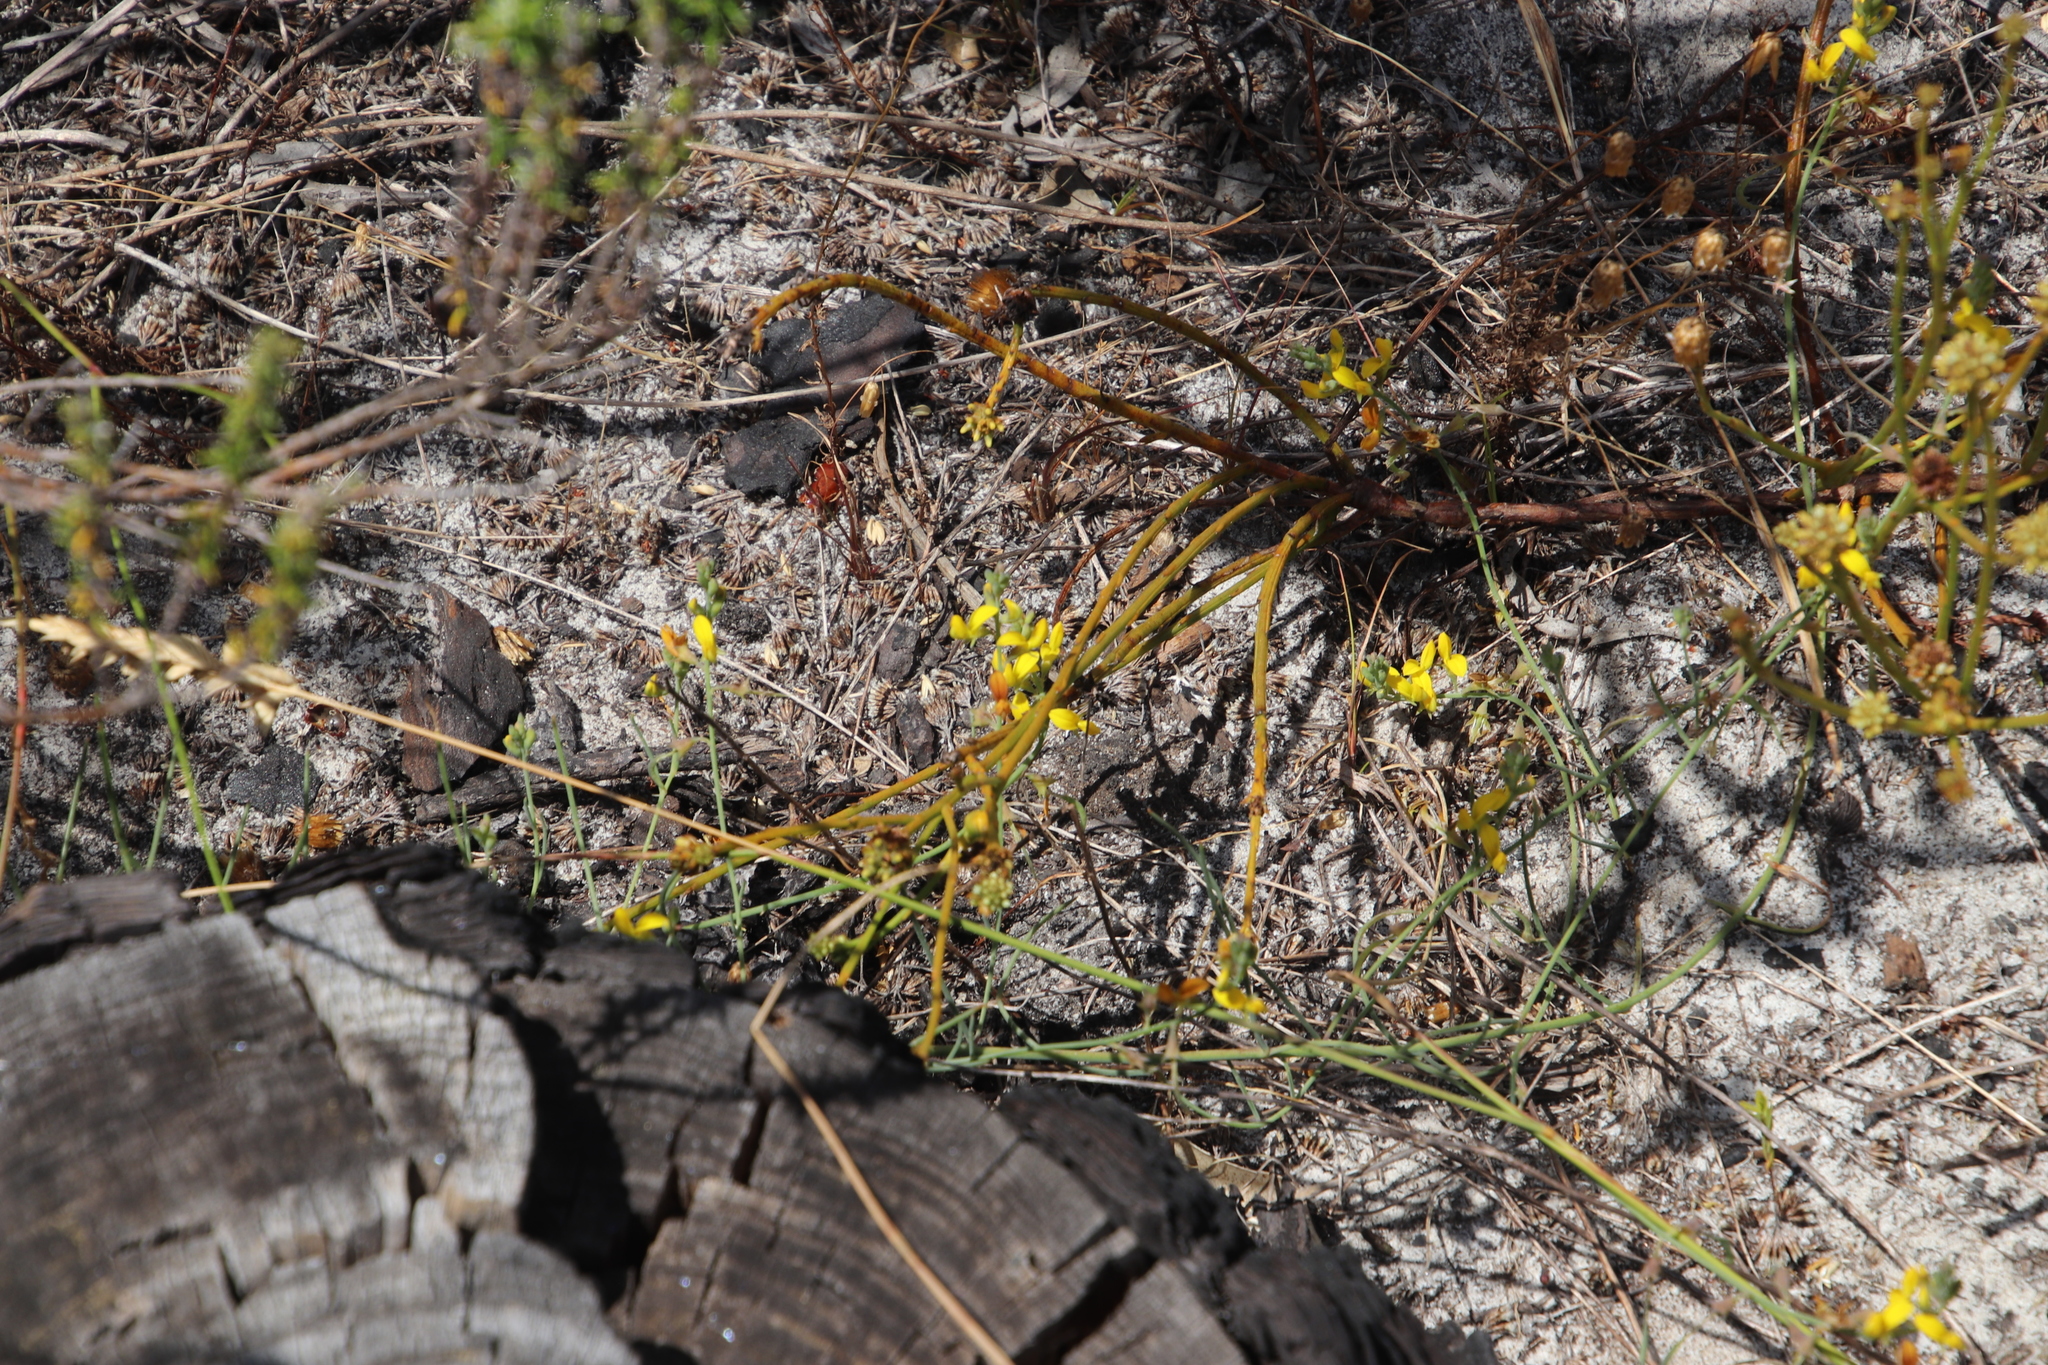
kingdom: Plantae
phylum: Tracheophyta
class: Magnoliopsida
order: Fabales
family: Fabaceae
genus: Lebeckia
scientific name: Lebeckia contaminata
